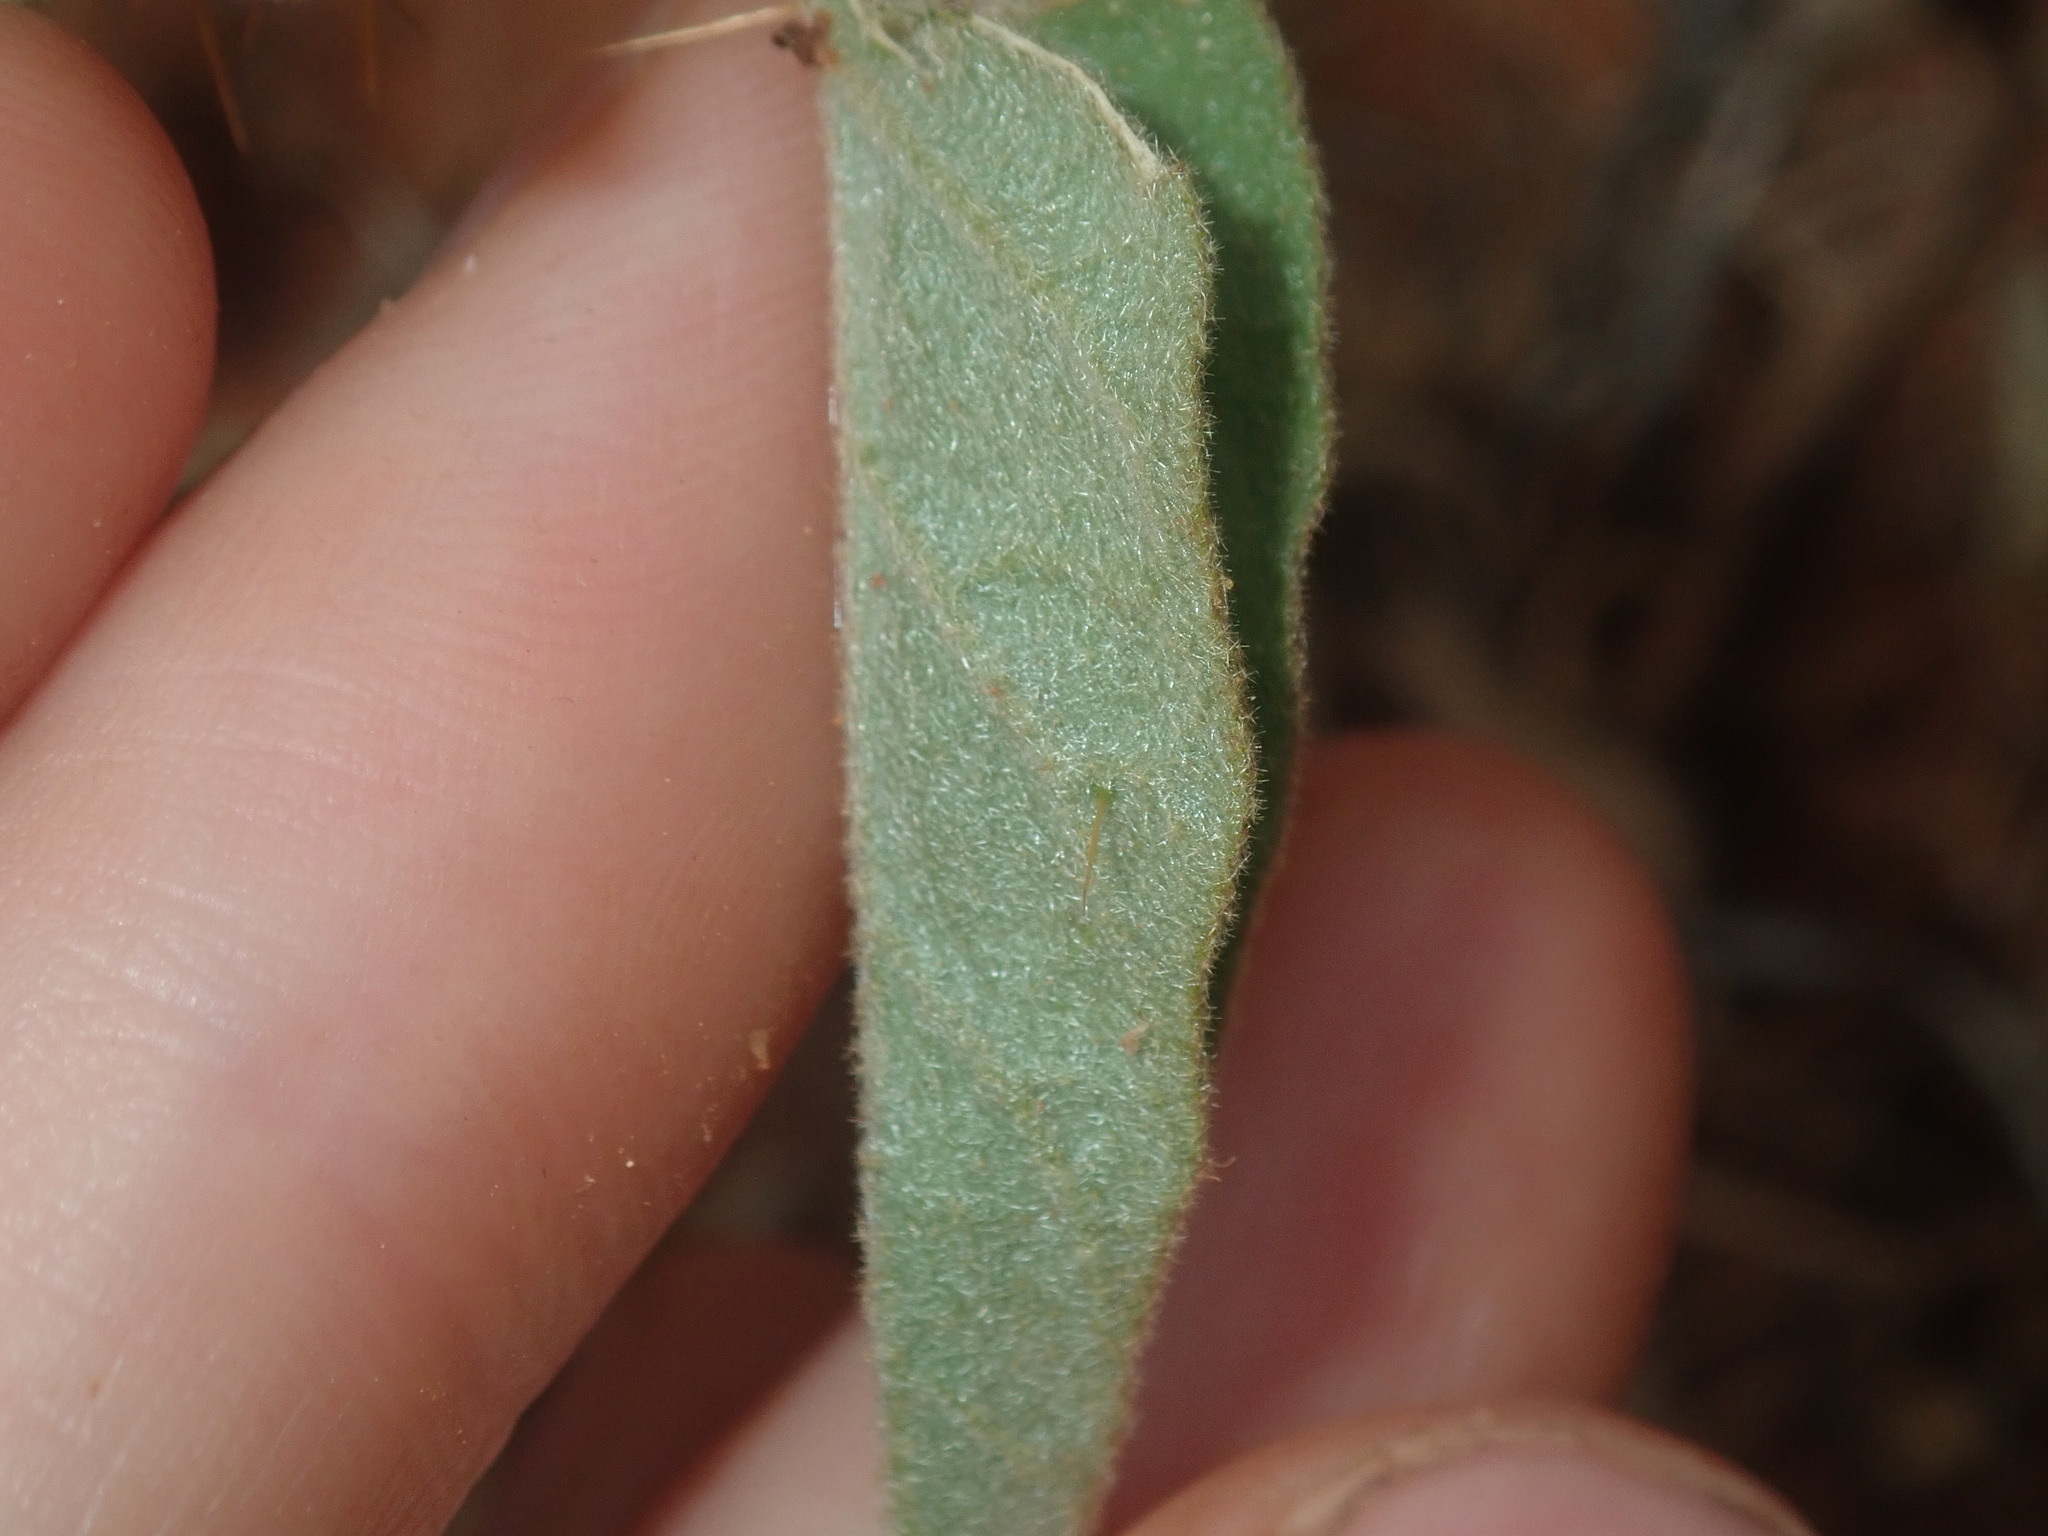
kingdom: Plantae
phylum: Tracheophyta
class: Magnoliopsida
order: Solanales
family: Solanaceae
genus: Solanum
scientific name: Solanum cleistogamum
